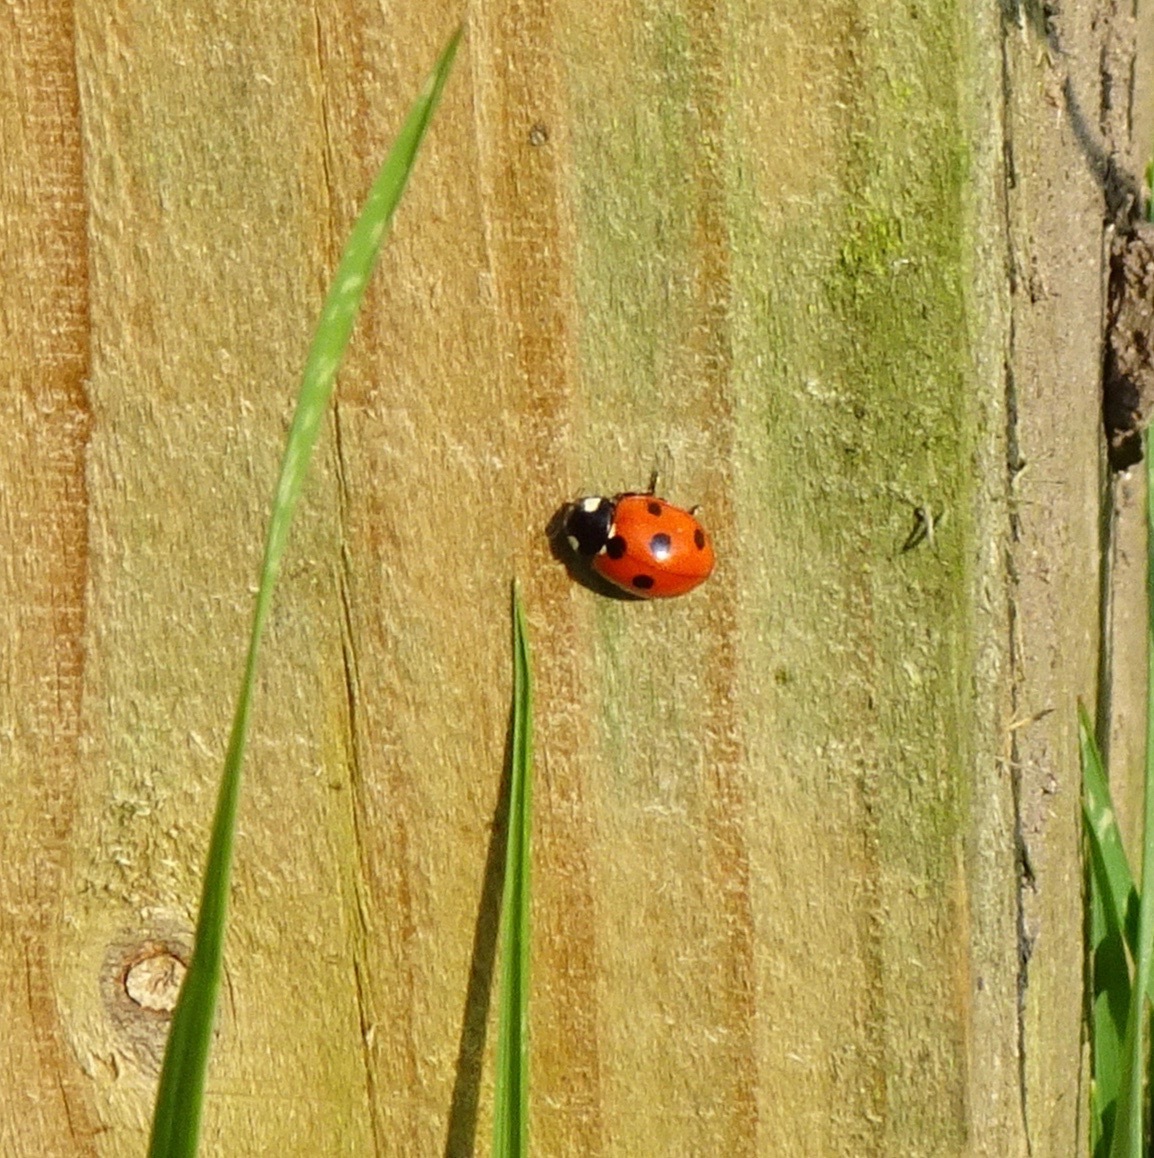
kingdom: Animalia
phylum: Arthropoda
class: Insecta
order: Coleoptera
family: Coccinellidae
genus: Coccinella
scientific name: Coccinella septempunctata
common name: Sevenspotted lady beetle
